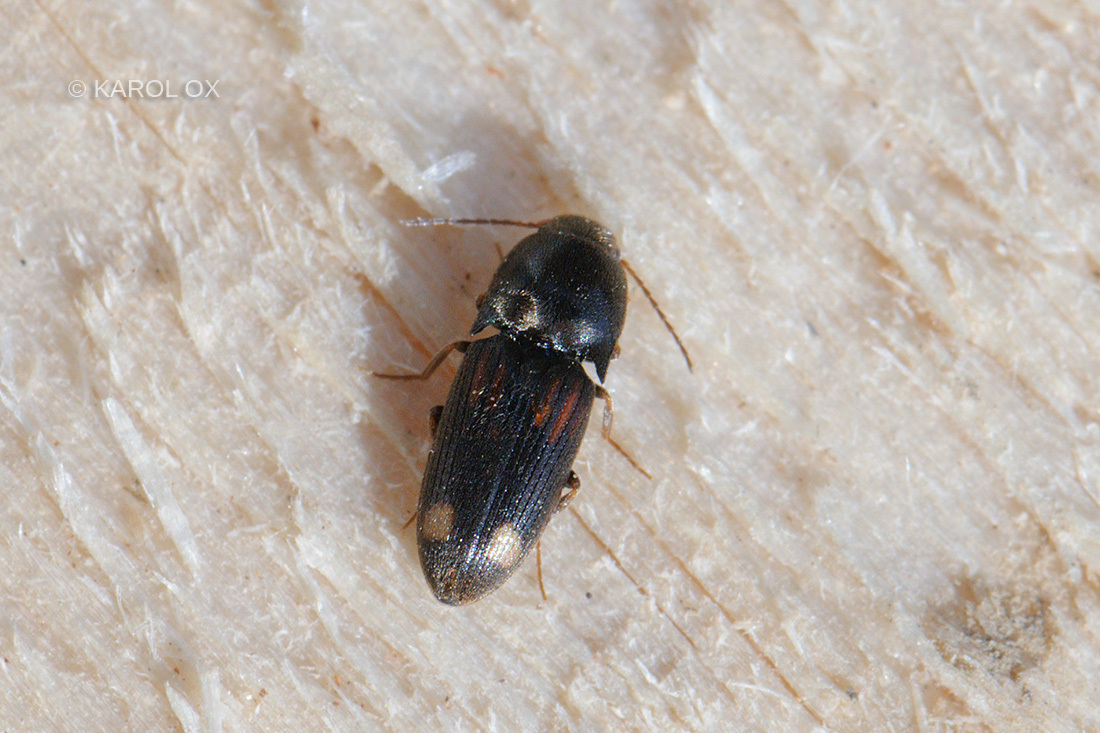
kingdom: Animalia
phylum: Arthropoda
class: Insecta
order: Coleoptera
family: Elateridae
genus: Drasterius
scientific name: Drasterius bimaculatus
